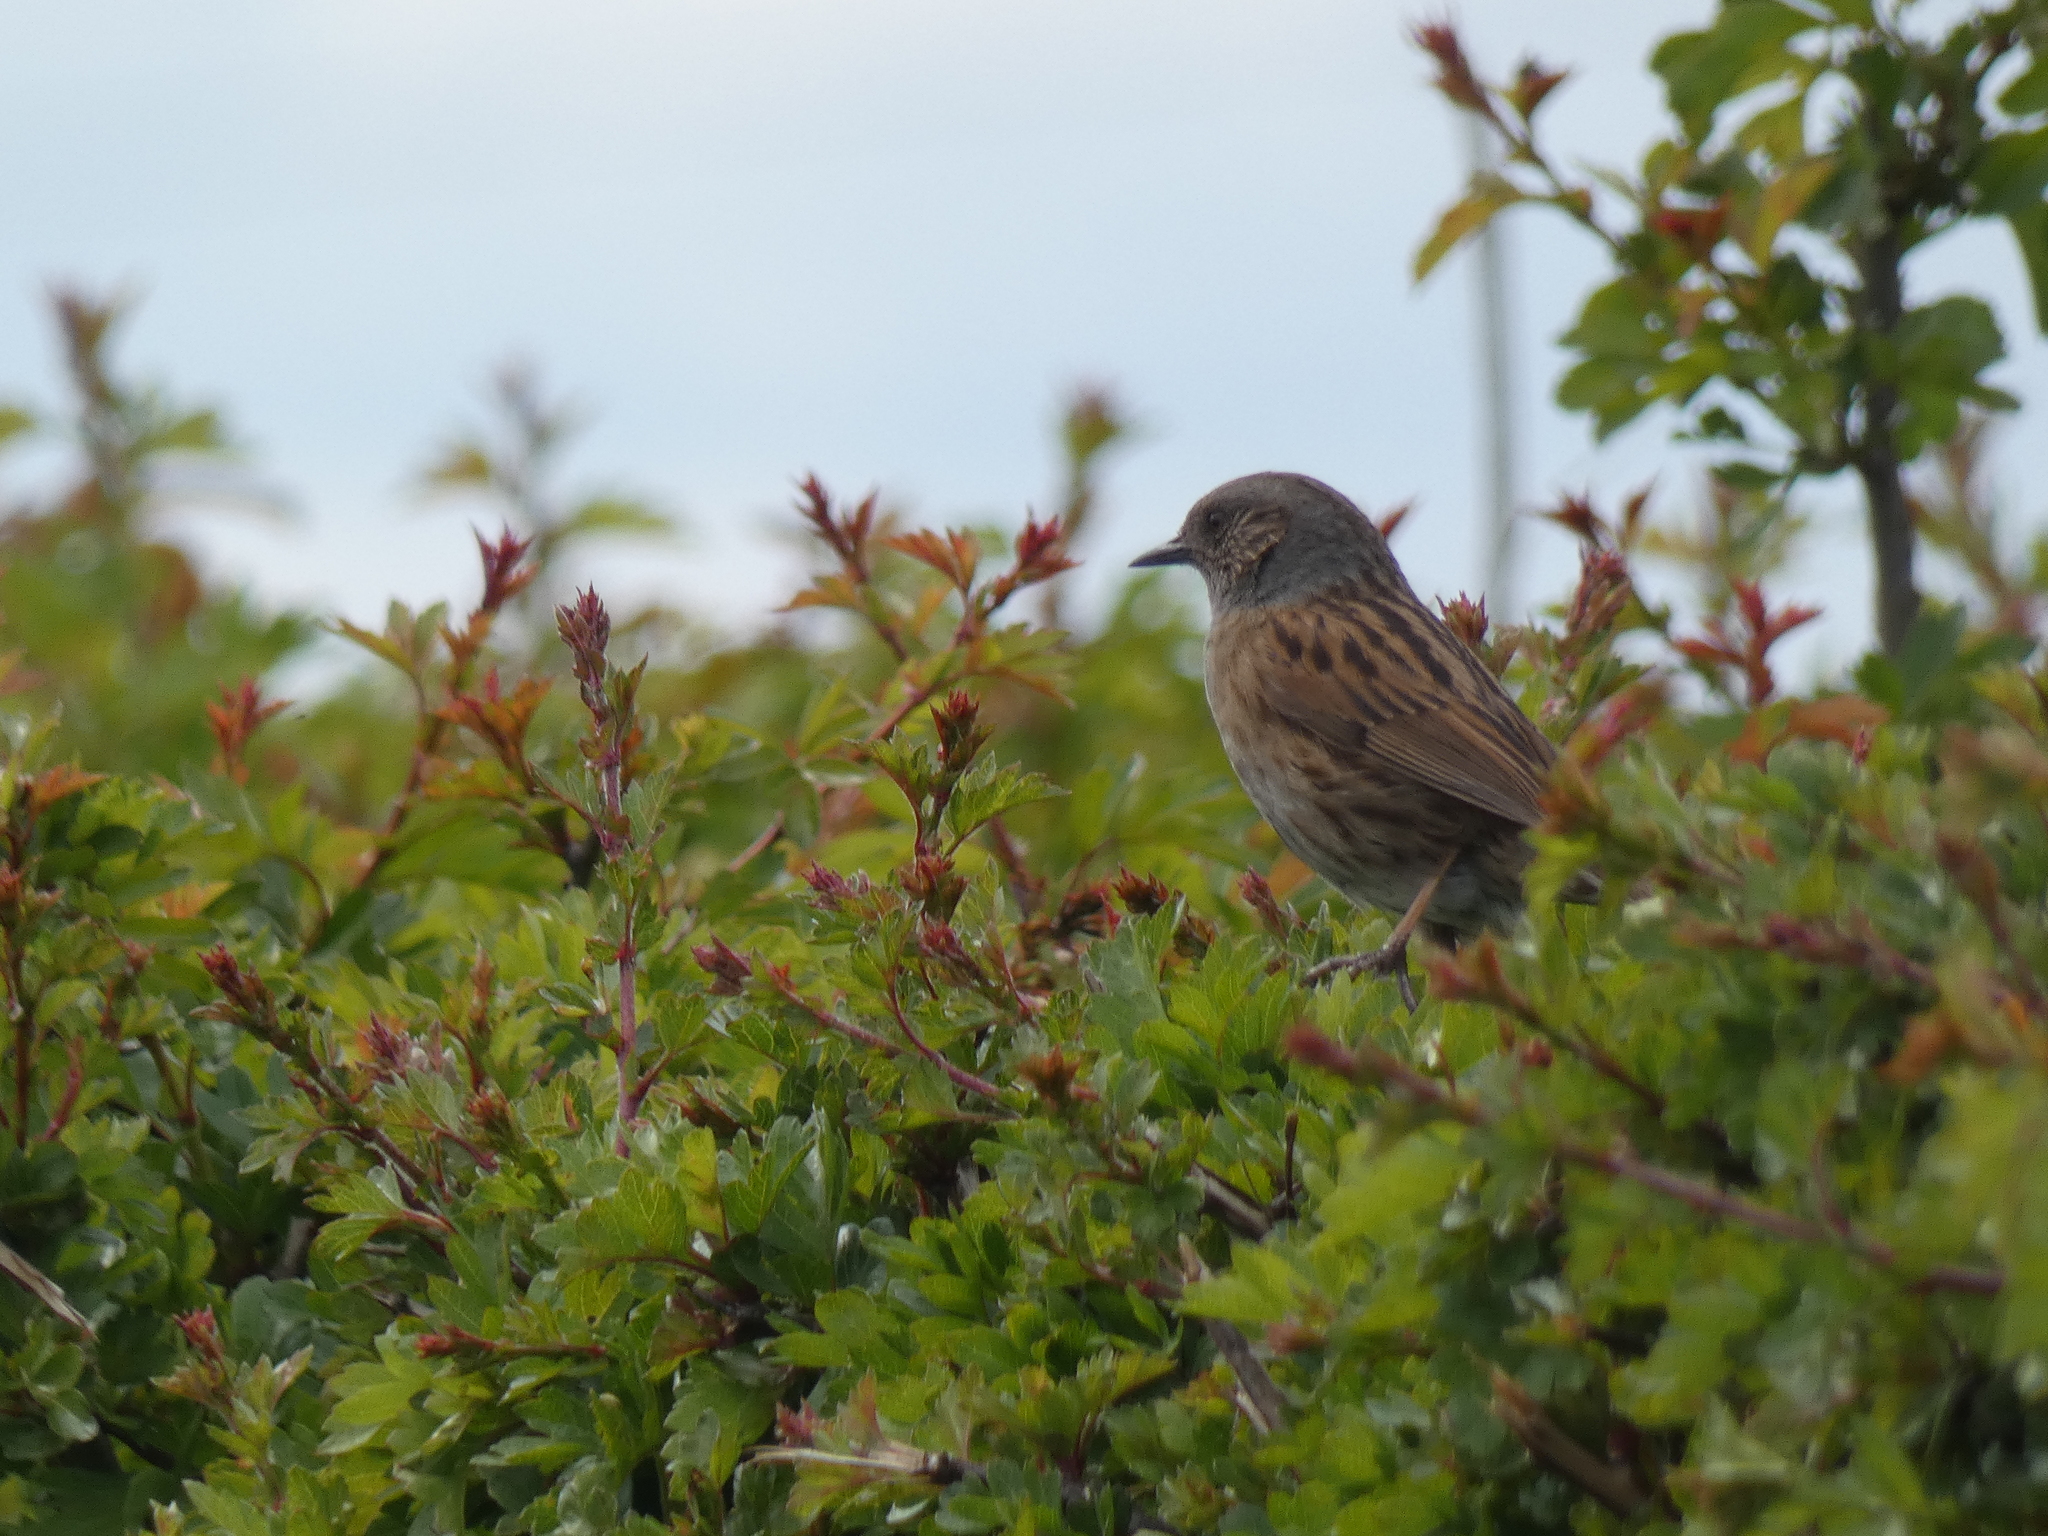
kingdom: Animalia
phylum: Chordata
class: Aves
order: Passeriformes
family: Prunellidae
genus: Prunella
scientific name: Prunella modularis
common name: Dunnock
